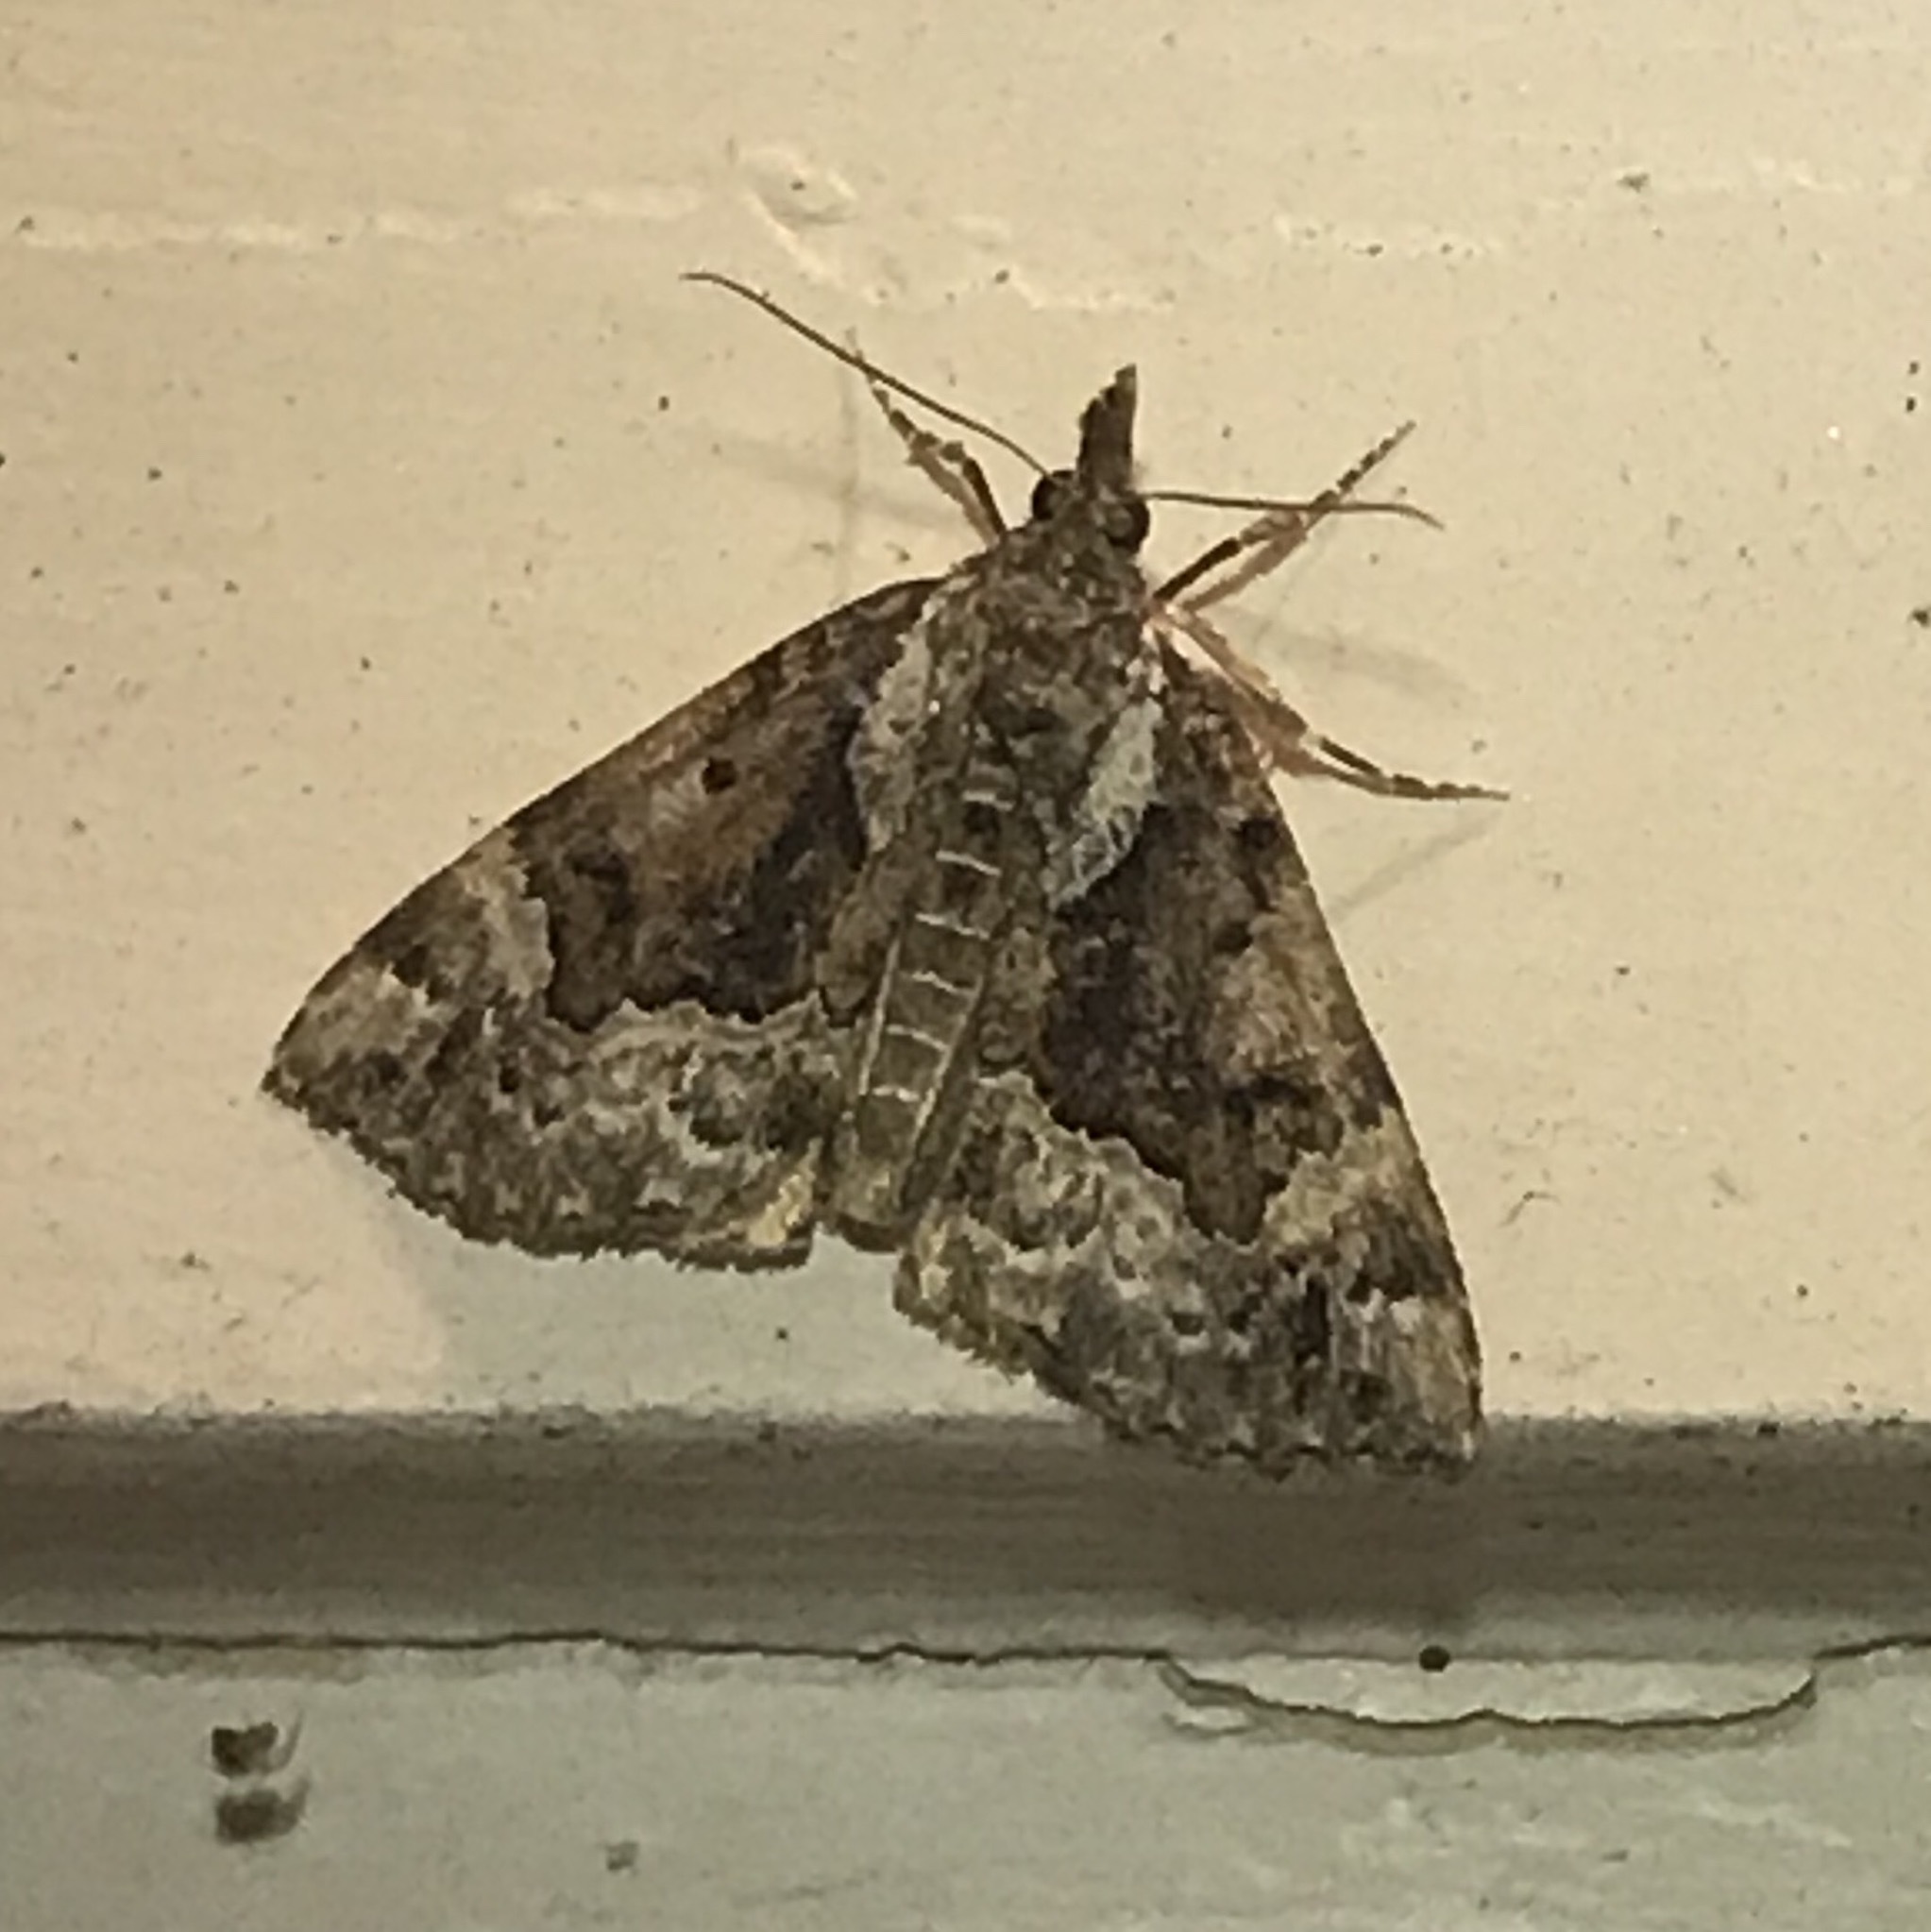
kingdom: Animalia
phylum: Arthropoda
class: Insecta
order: Lepidoptera
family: Erebidae
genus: Hypena
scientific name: Hypena palparia
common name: Mottled bomolocha moth
